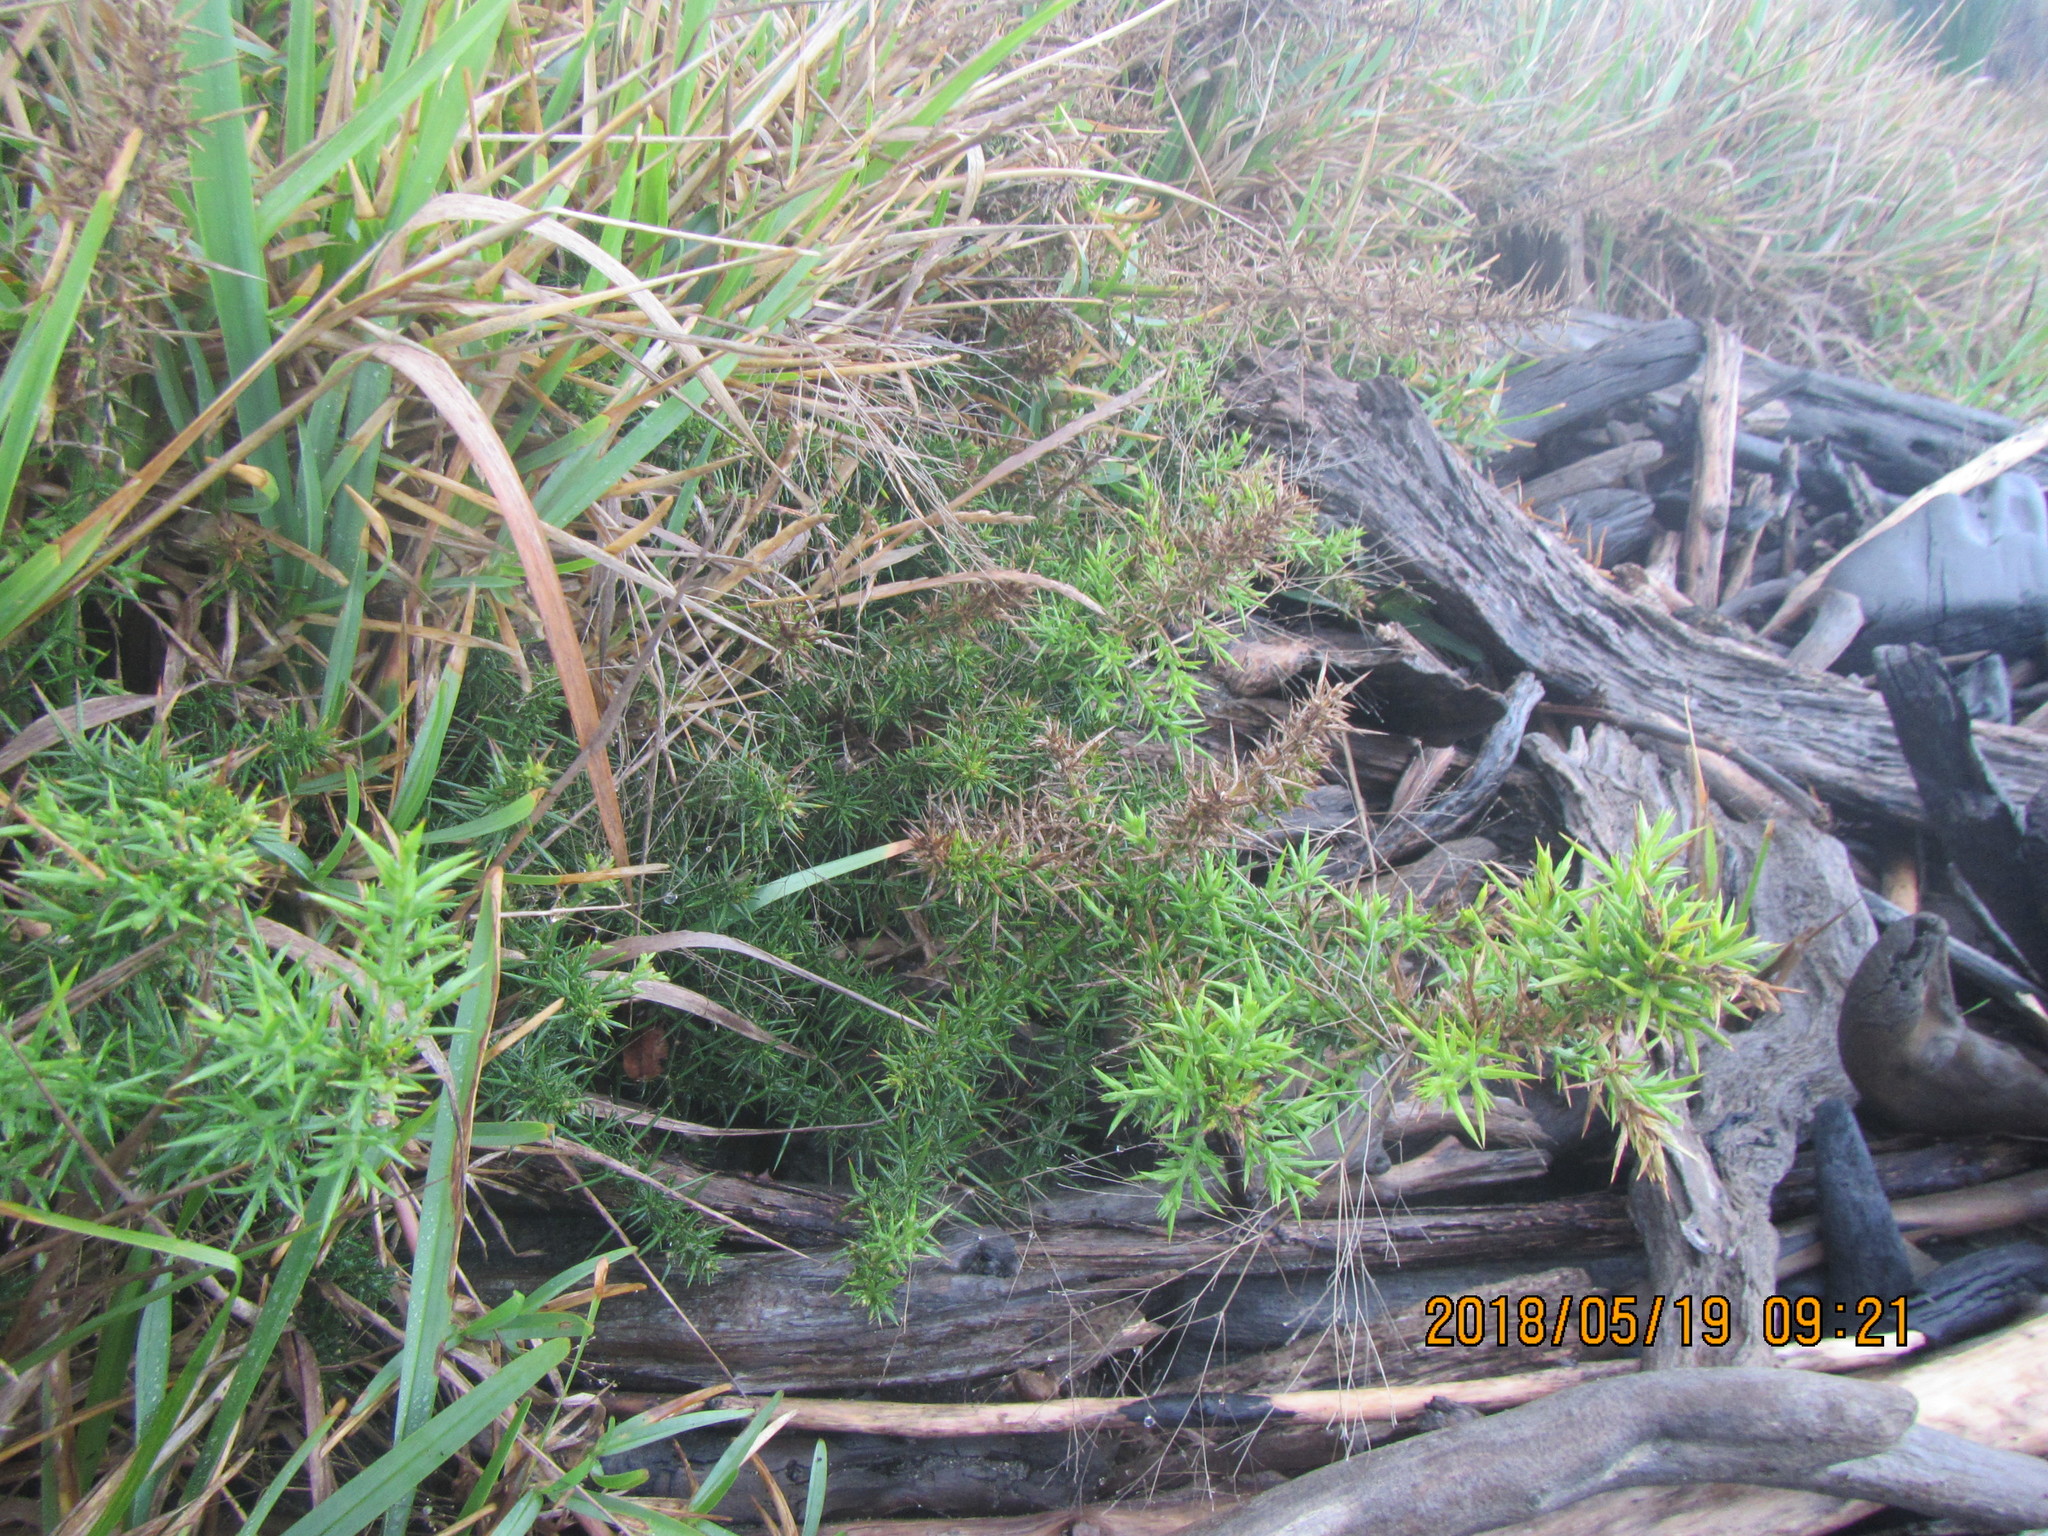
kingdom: Plantae
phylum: Tracheophyta
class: Magnoliopsida
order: Fabales
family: Fabaceae
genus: Ulex
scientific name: Ulex europaeus
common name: Common gorse
